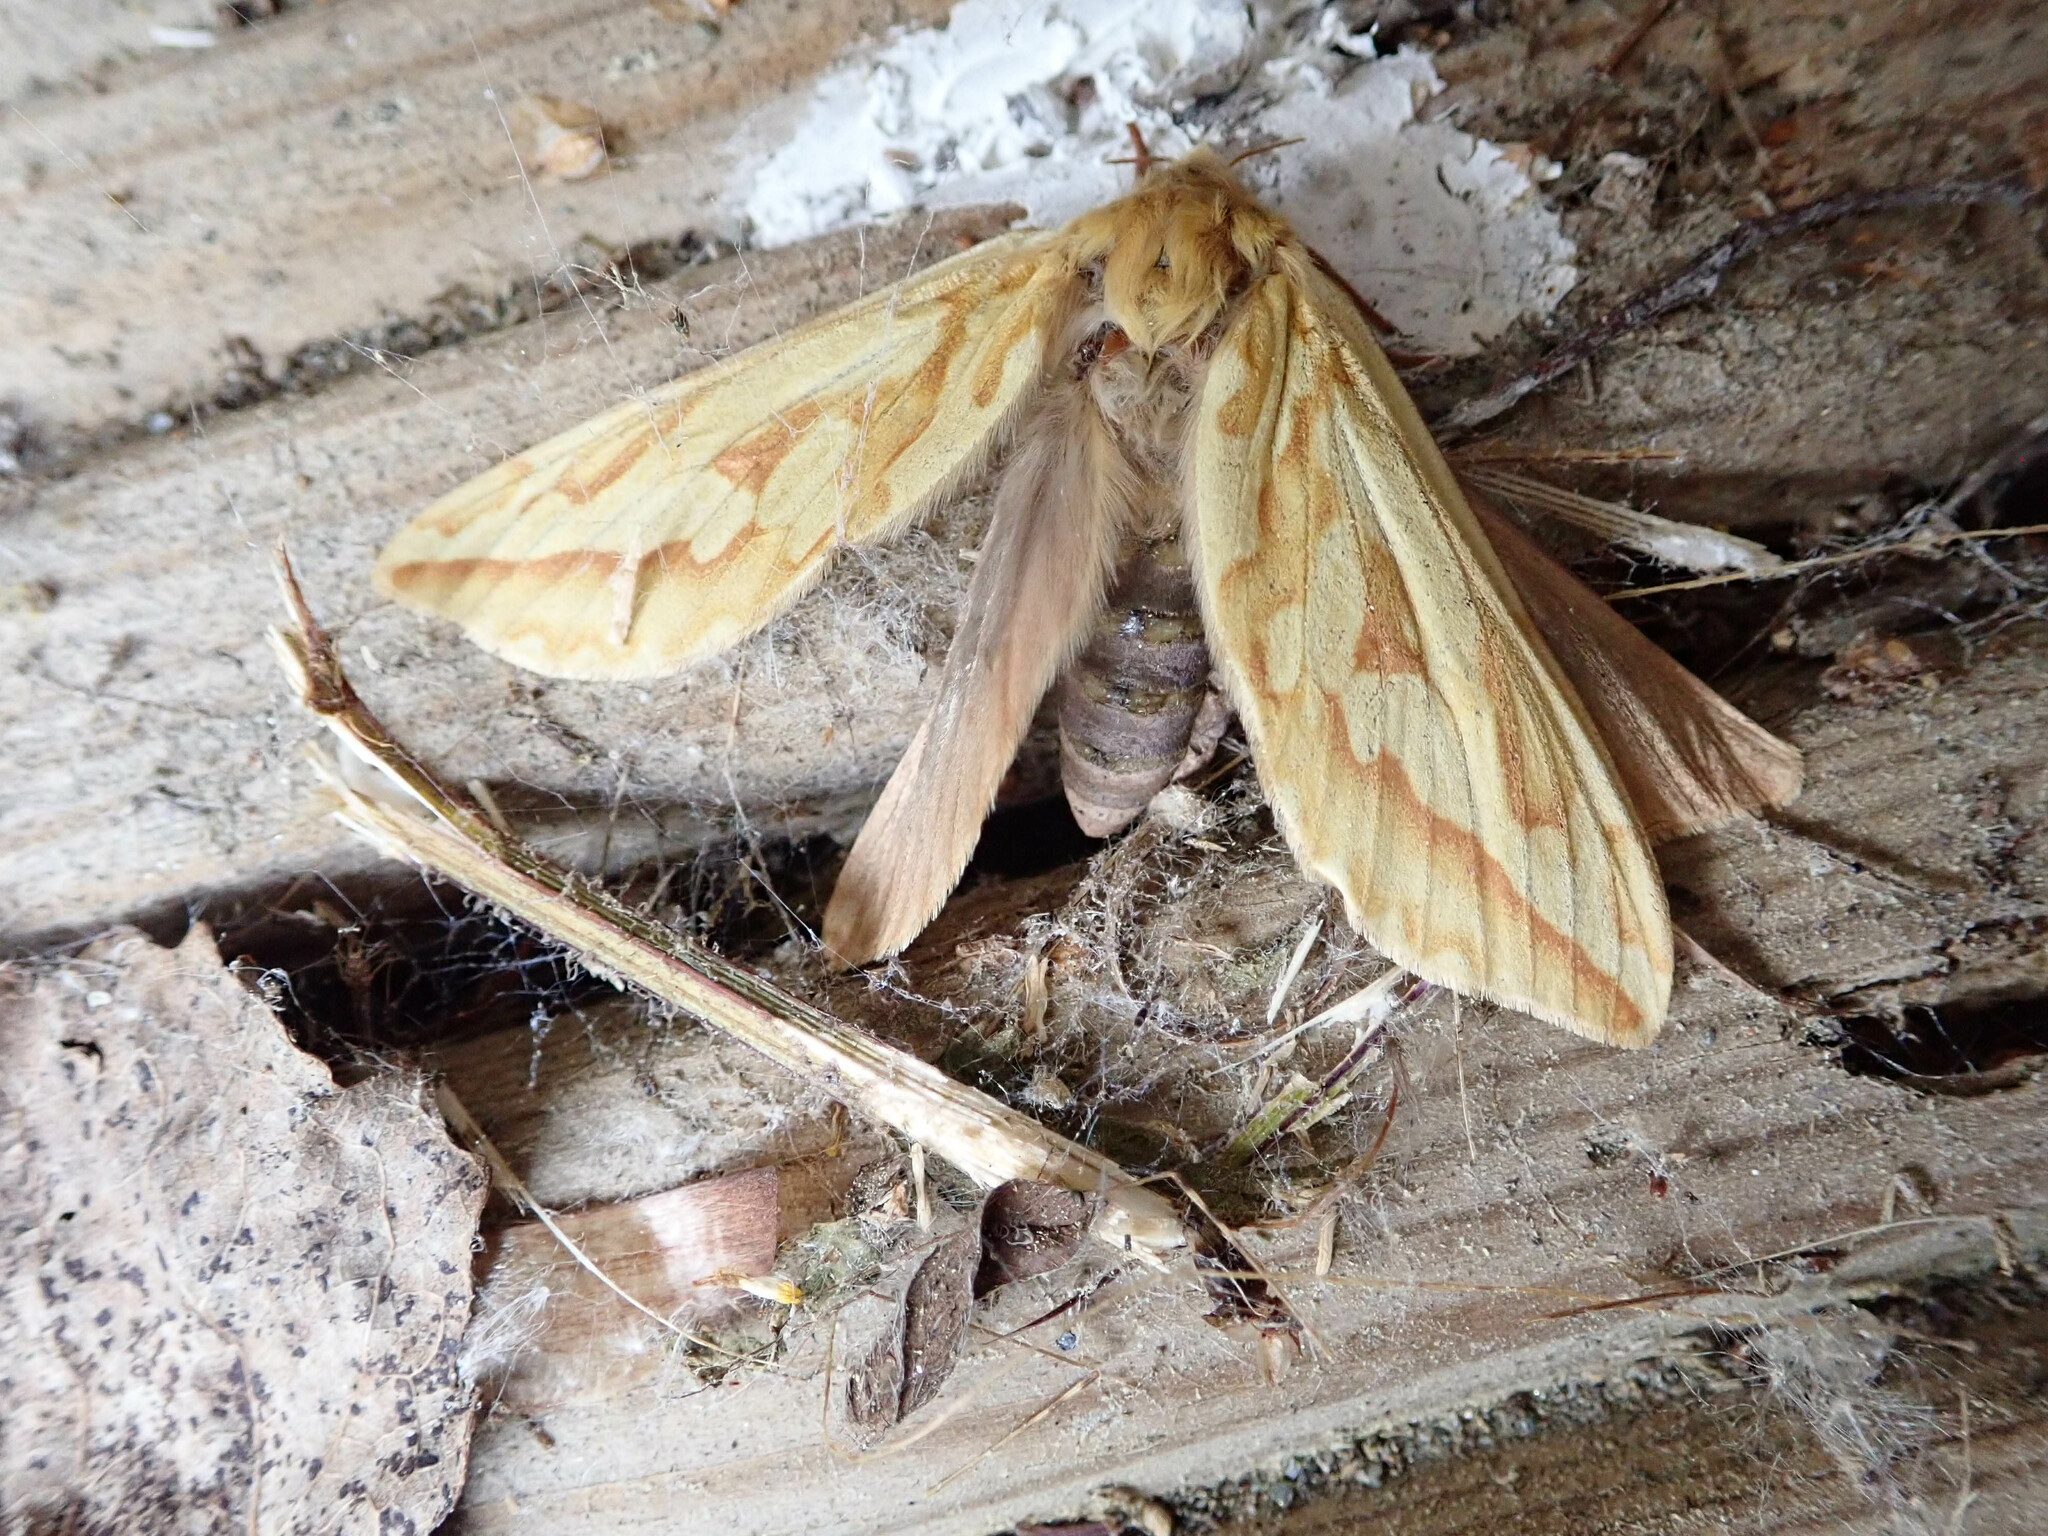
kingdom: Animalia
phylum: Arthropoda
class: Insecta
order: Lepidoptera
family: Hepialidae
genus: Hepialus
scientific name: Hepialus humuli
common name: Ghost moth
